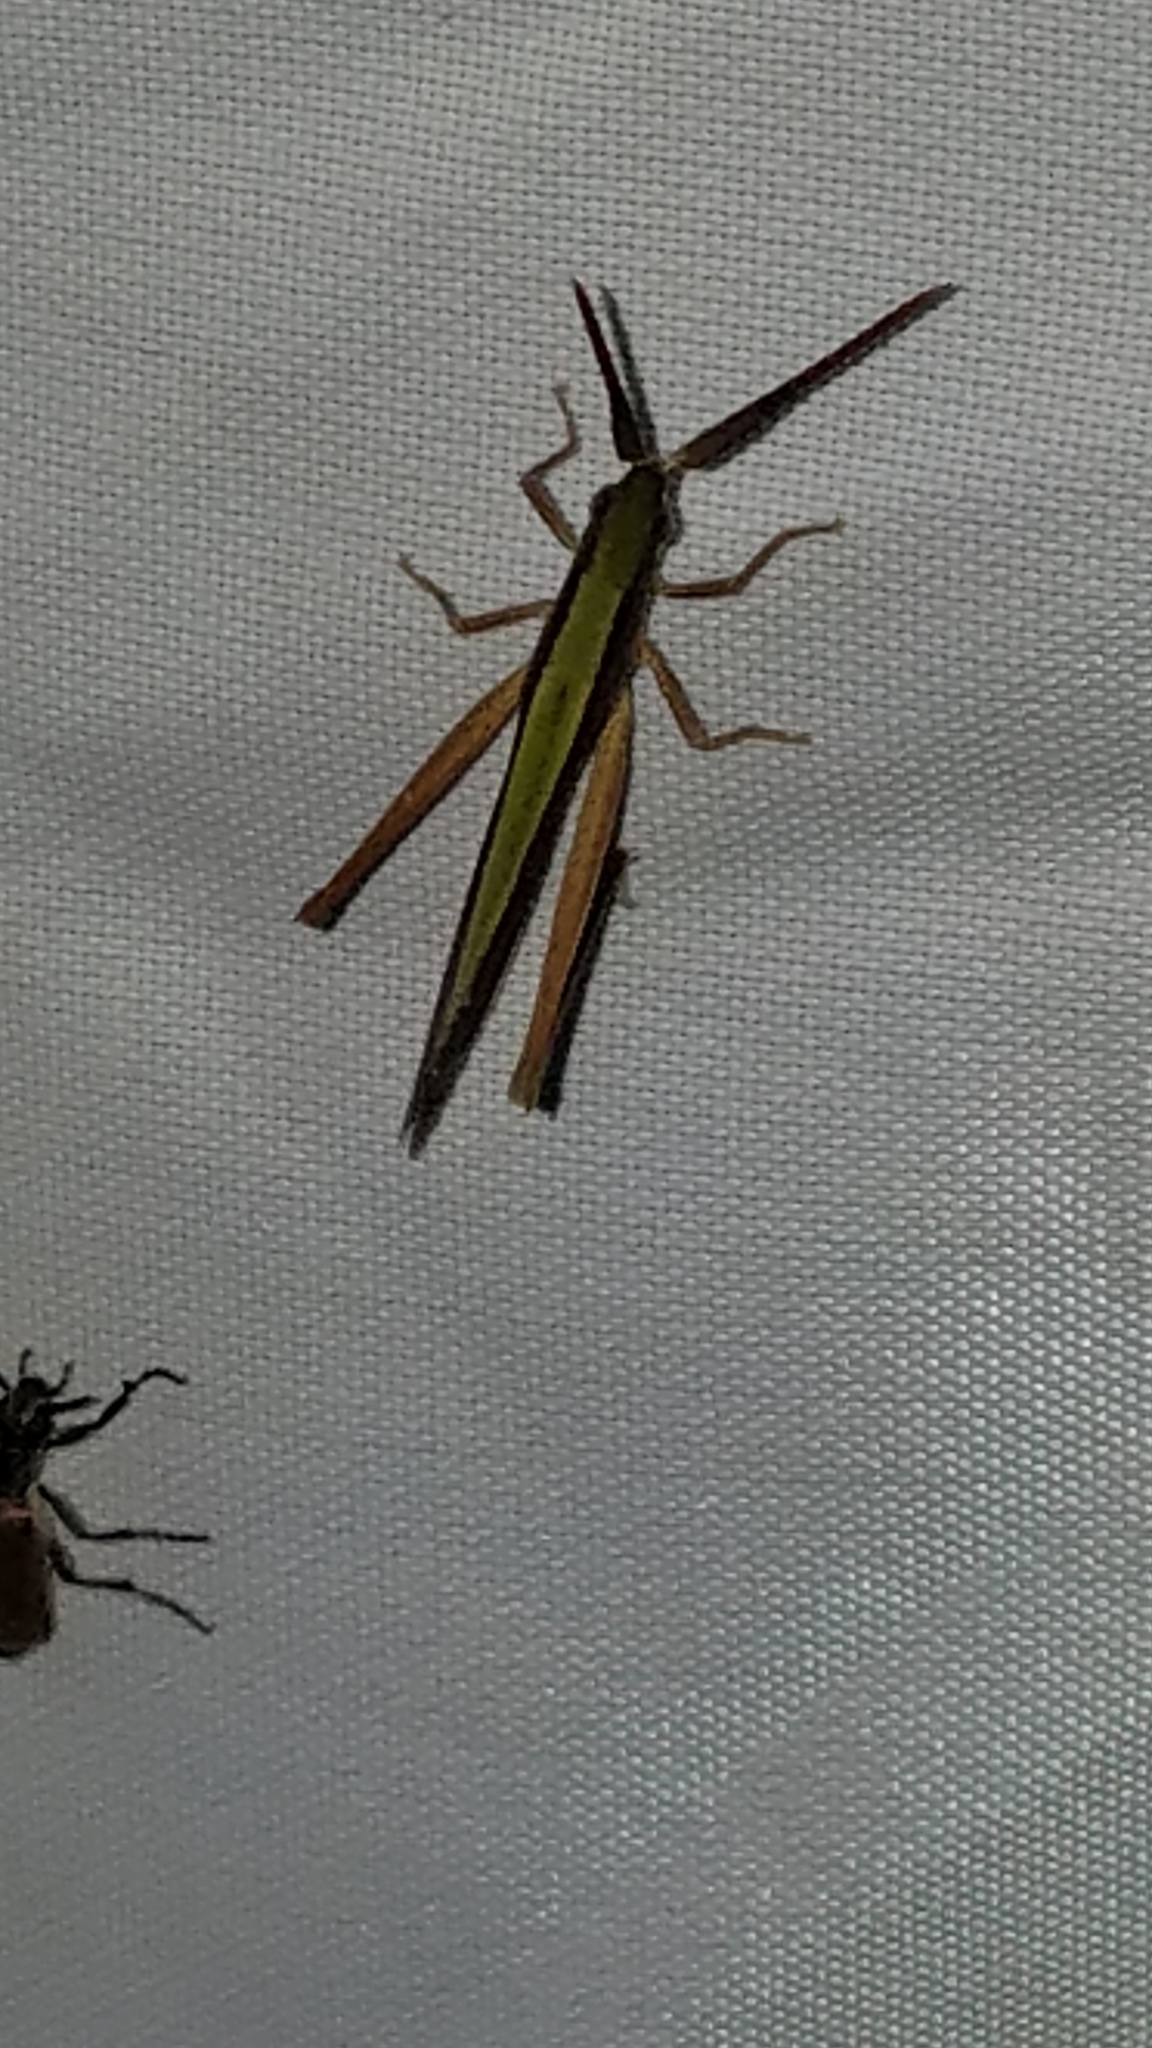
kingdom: Animalia
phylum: Arthropoda
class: Insecta
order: Orthoptera
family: Acrididae
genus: Achurum
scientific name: Achurum sumichrasti
